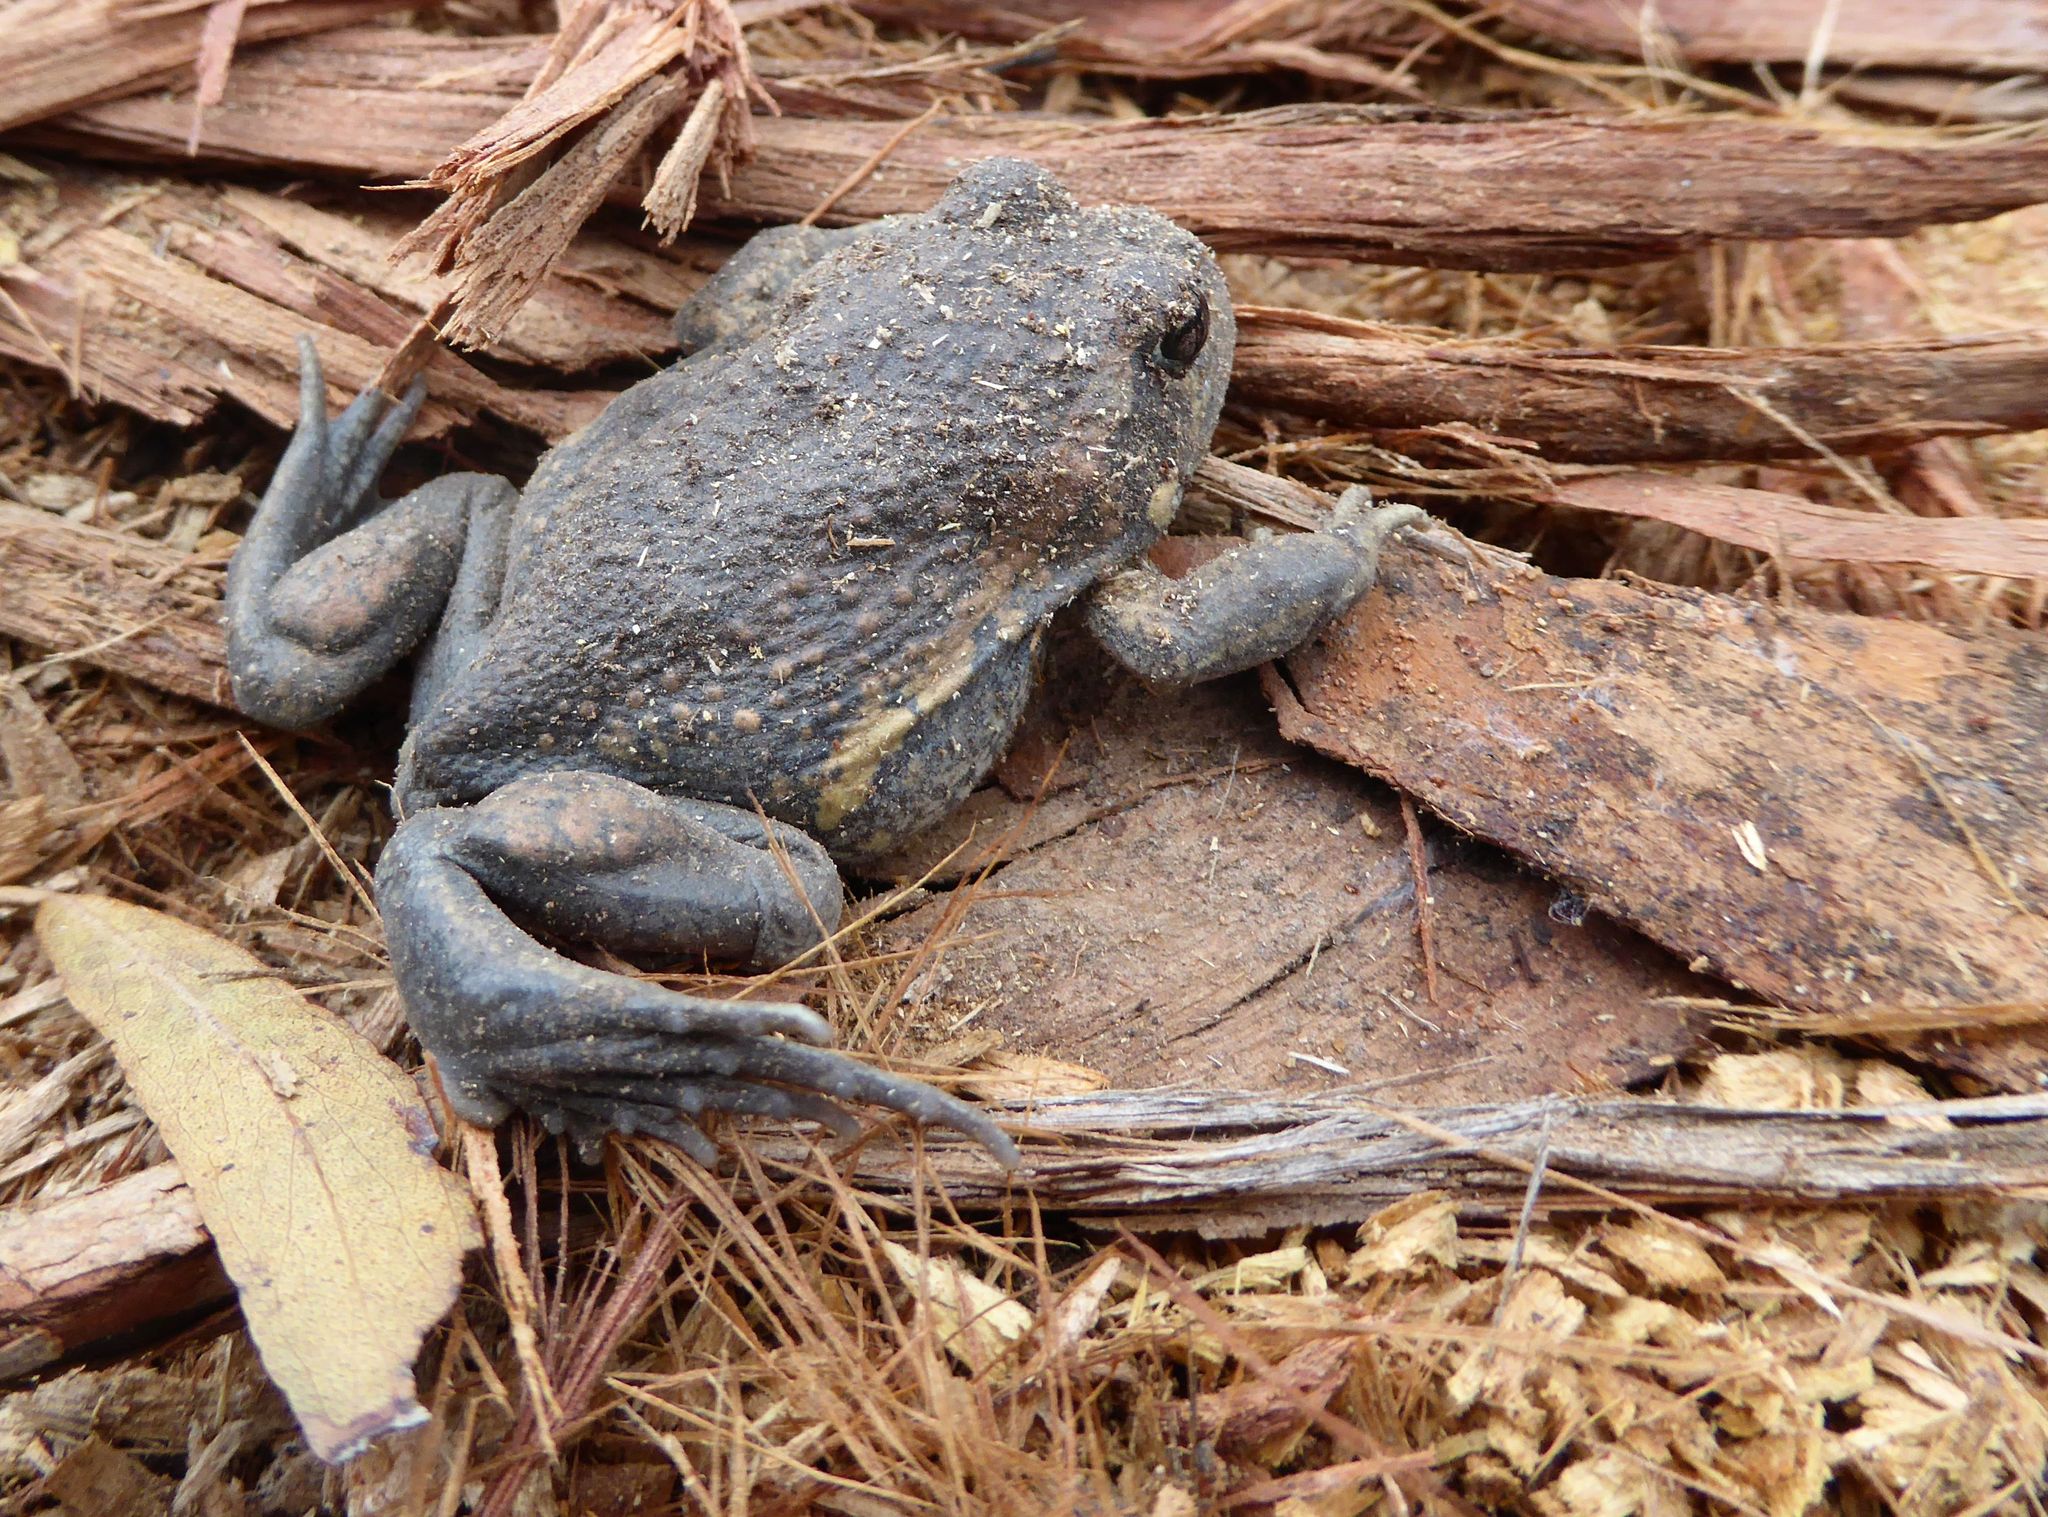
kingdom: Animalia
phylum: Chordata
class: Amphibia
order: Anura
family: Limnodynastidae
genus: Limnodynastes
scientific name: Limnodynastes dumerilii
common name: Banjo frog
